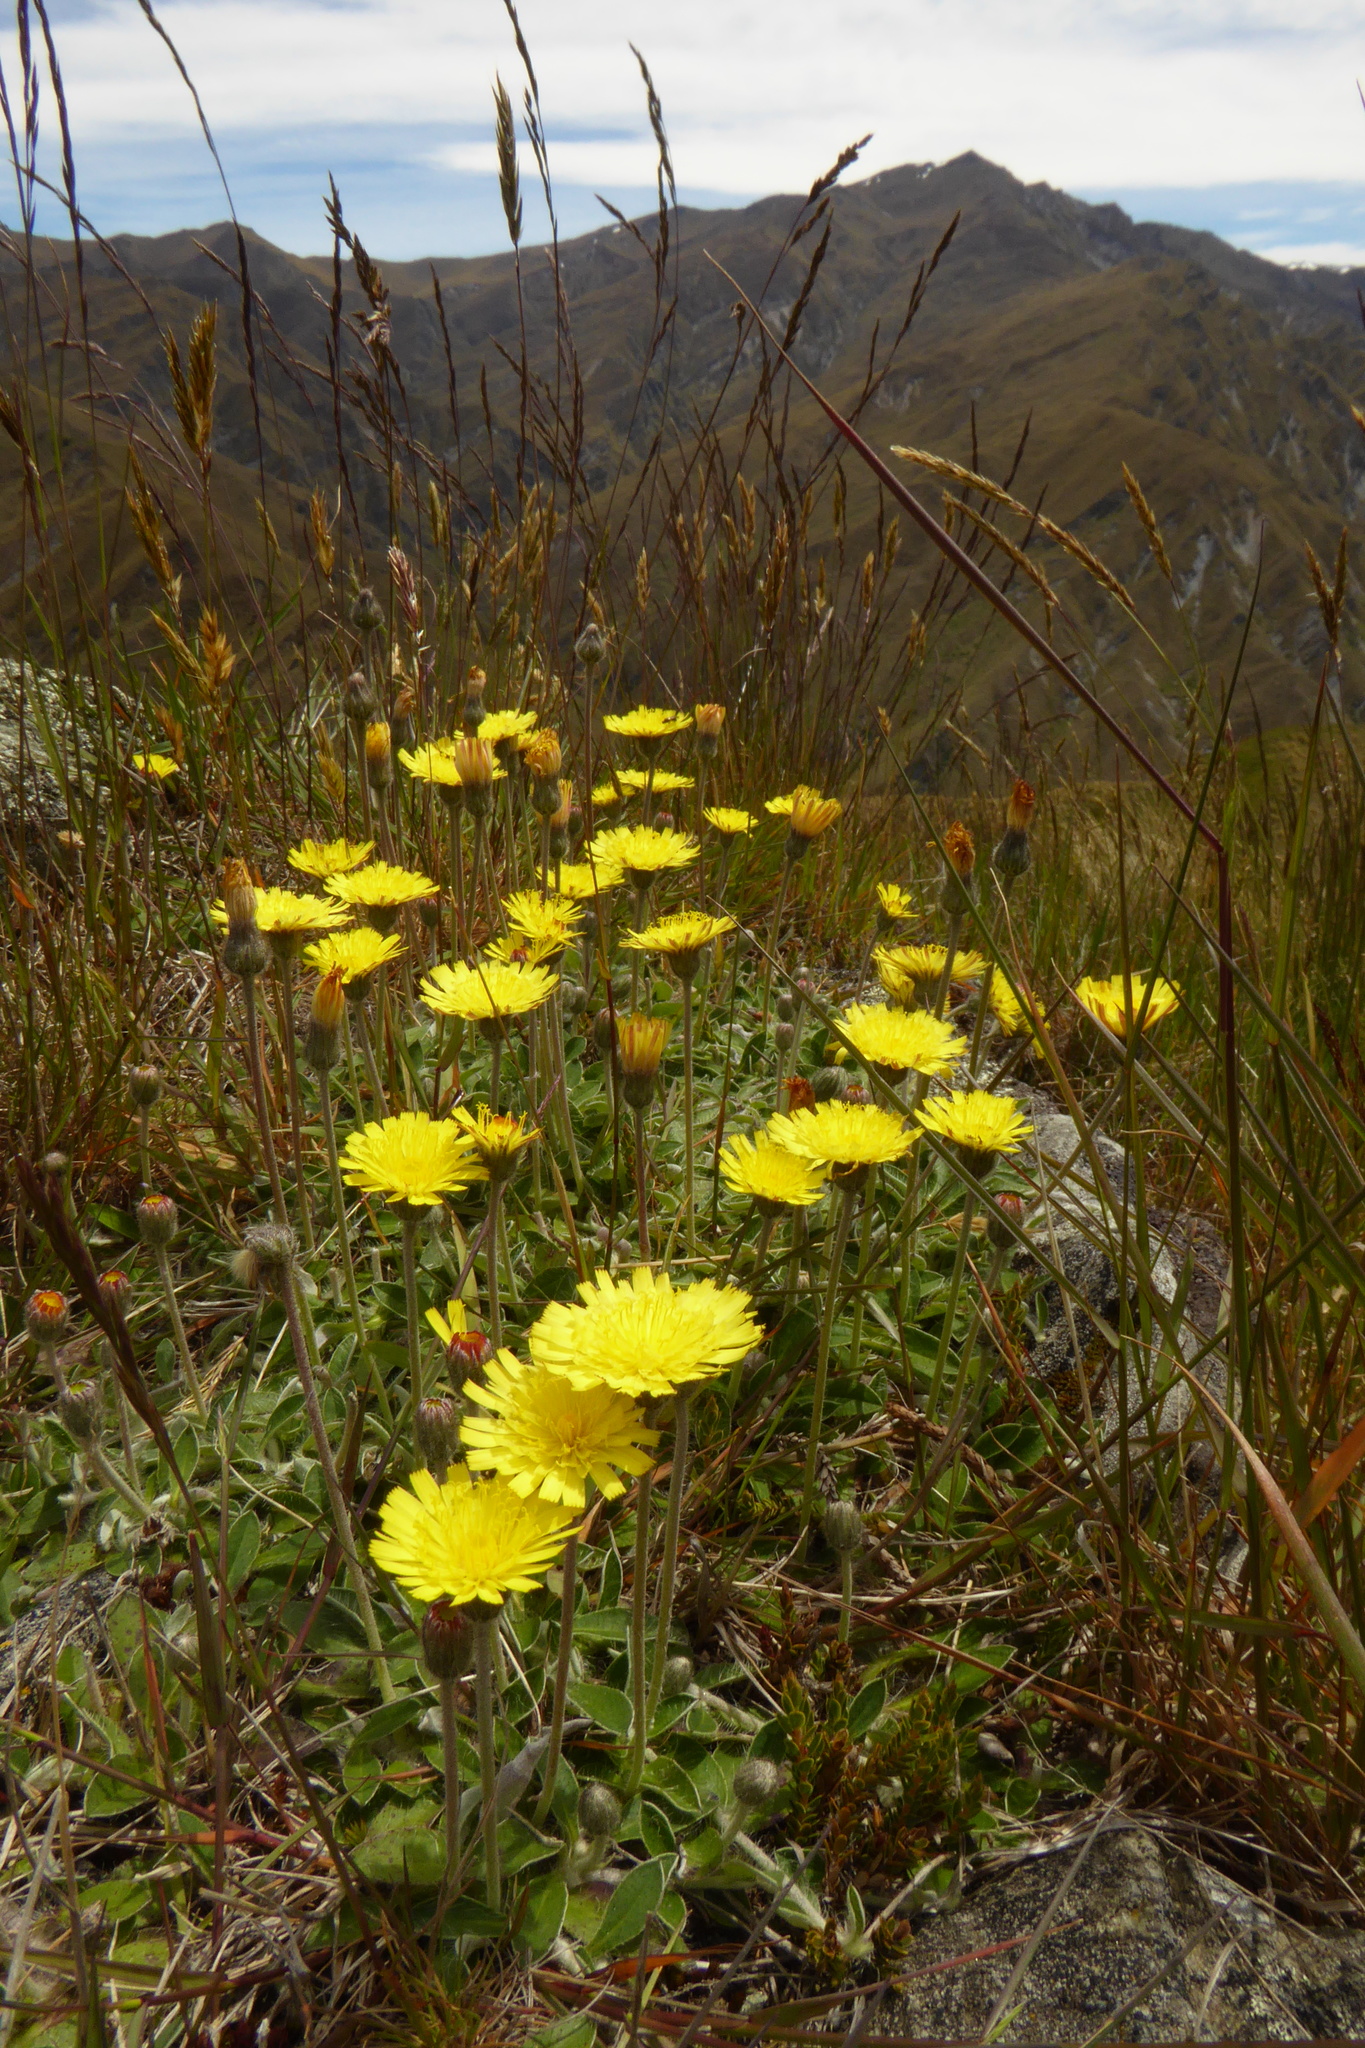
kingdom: Plantae
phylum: Tracheophyta
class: Magnoliopsida
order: Asterales
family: Asteraceae
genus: Pilosella
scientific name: Pilosella officinarum
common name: Mouse-ear hawkweed
